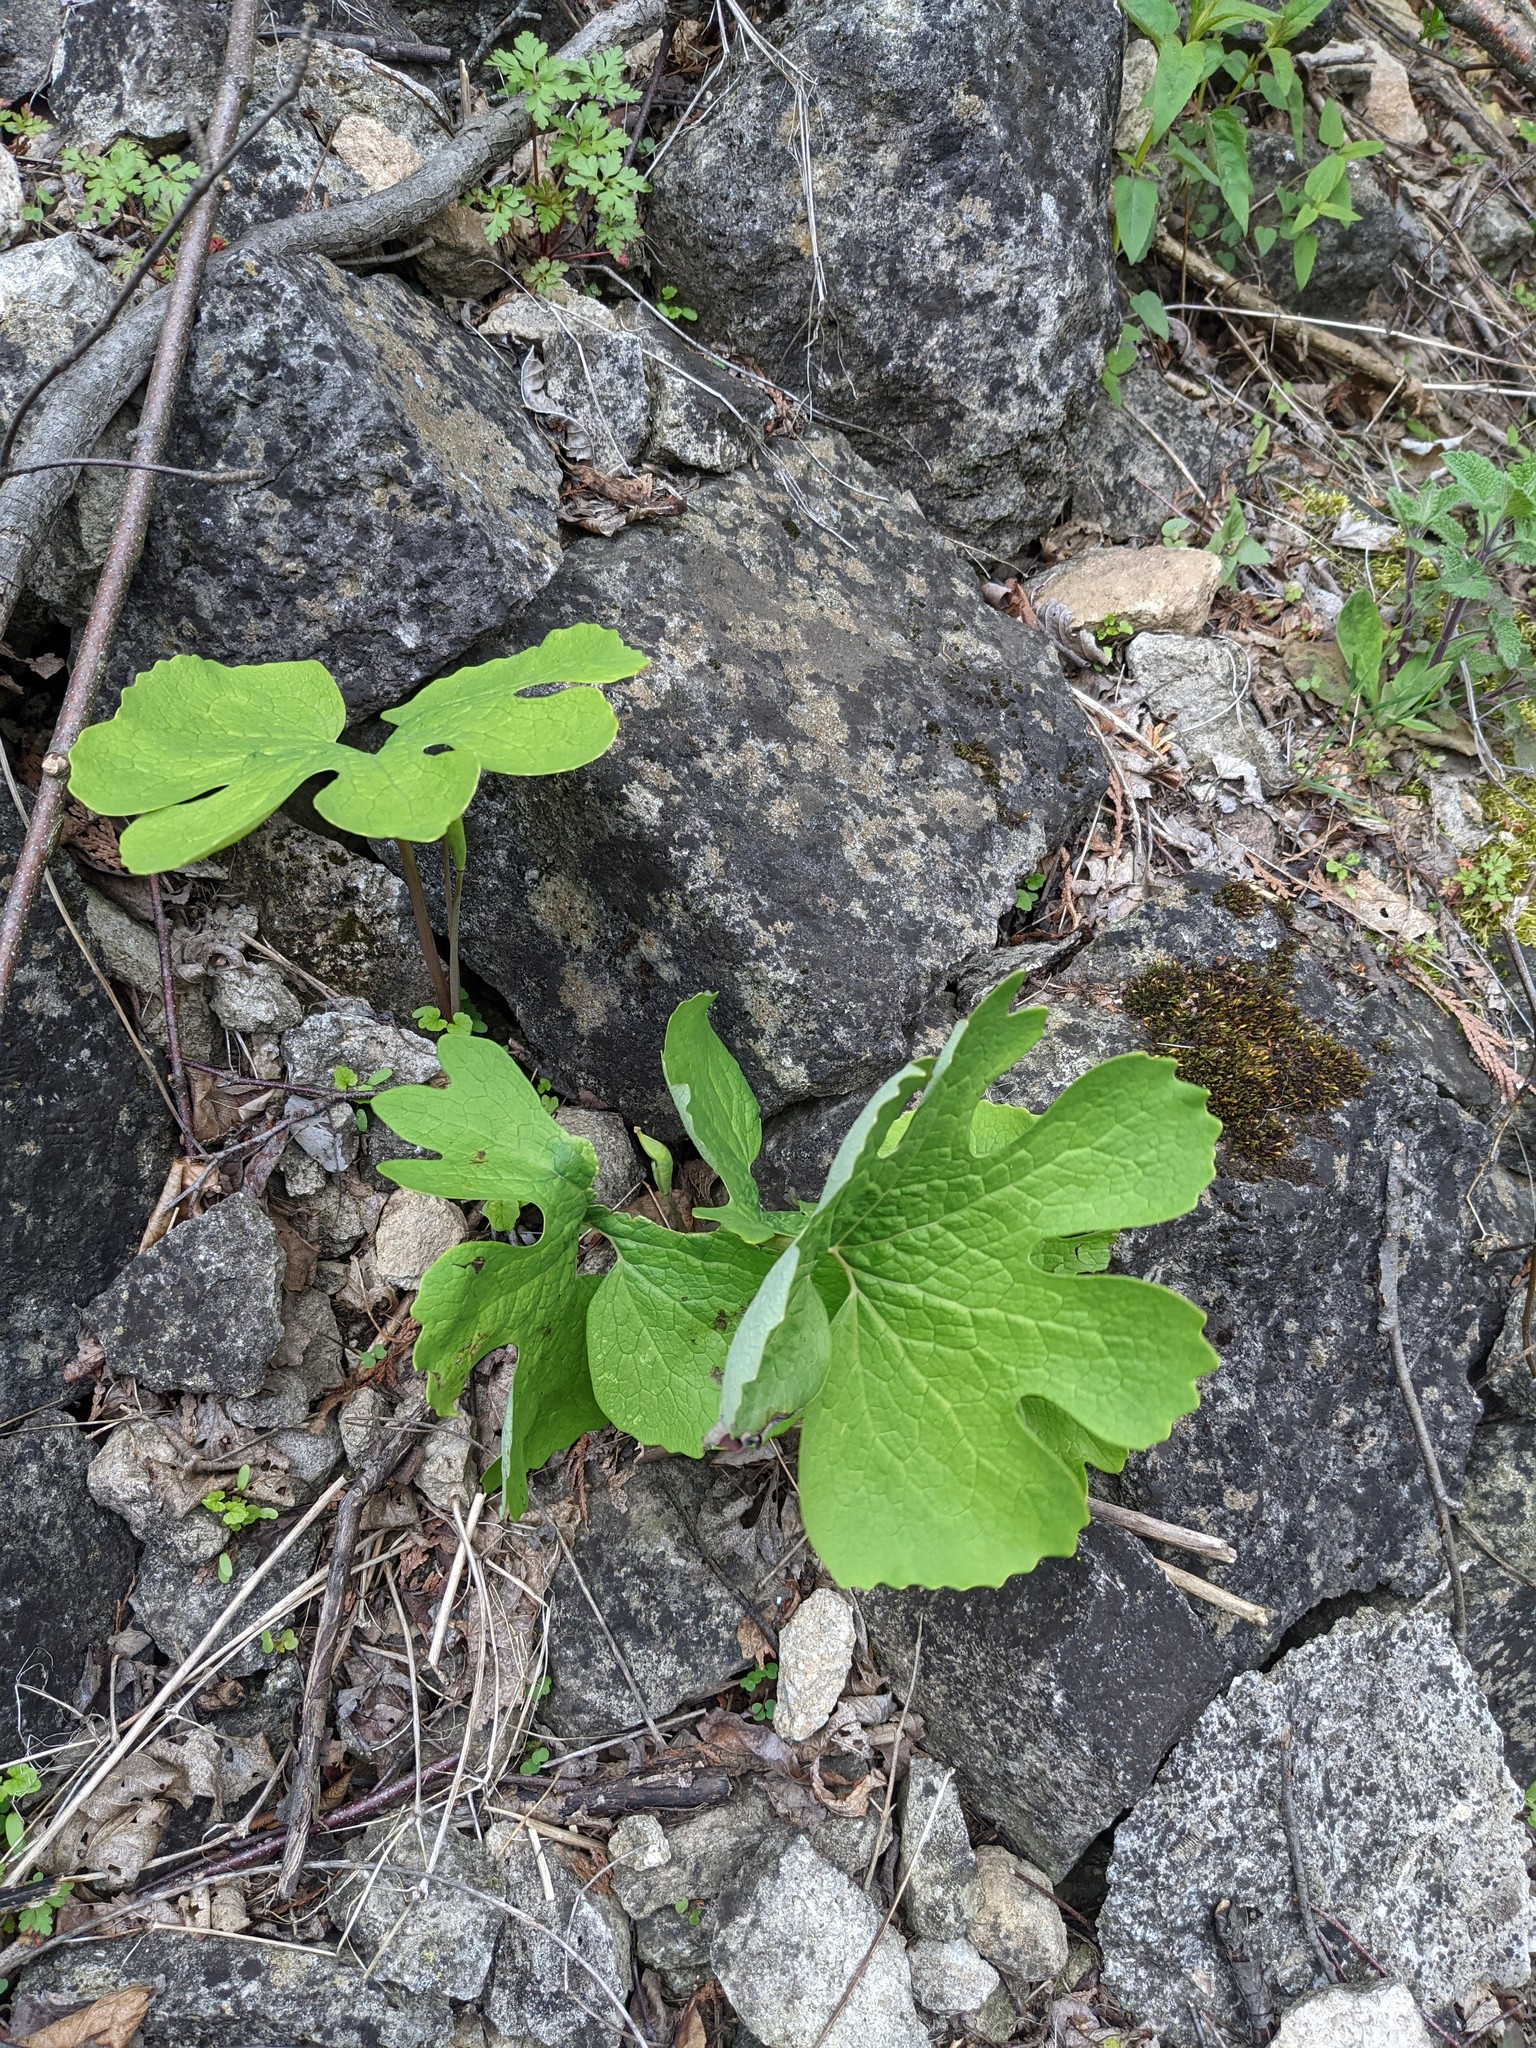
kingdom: Plantae
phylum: Tracheophyta
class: Magnoliopsida
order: Ranunculales
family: Papaveraceae
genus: Sanguinaria
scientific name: Sanguinaria canadensis
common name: Bloodroot
